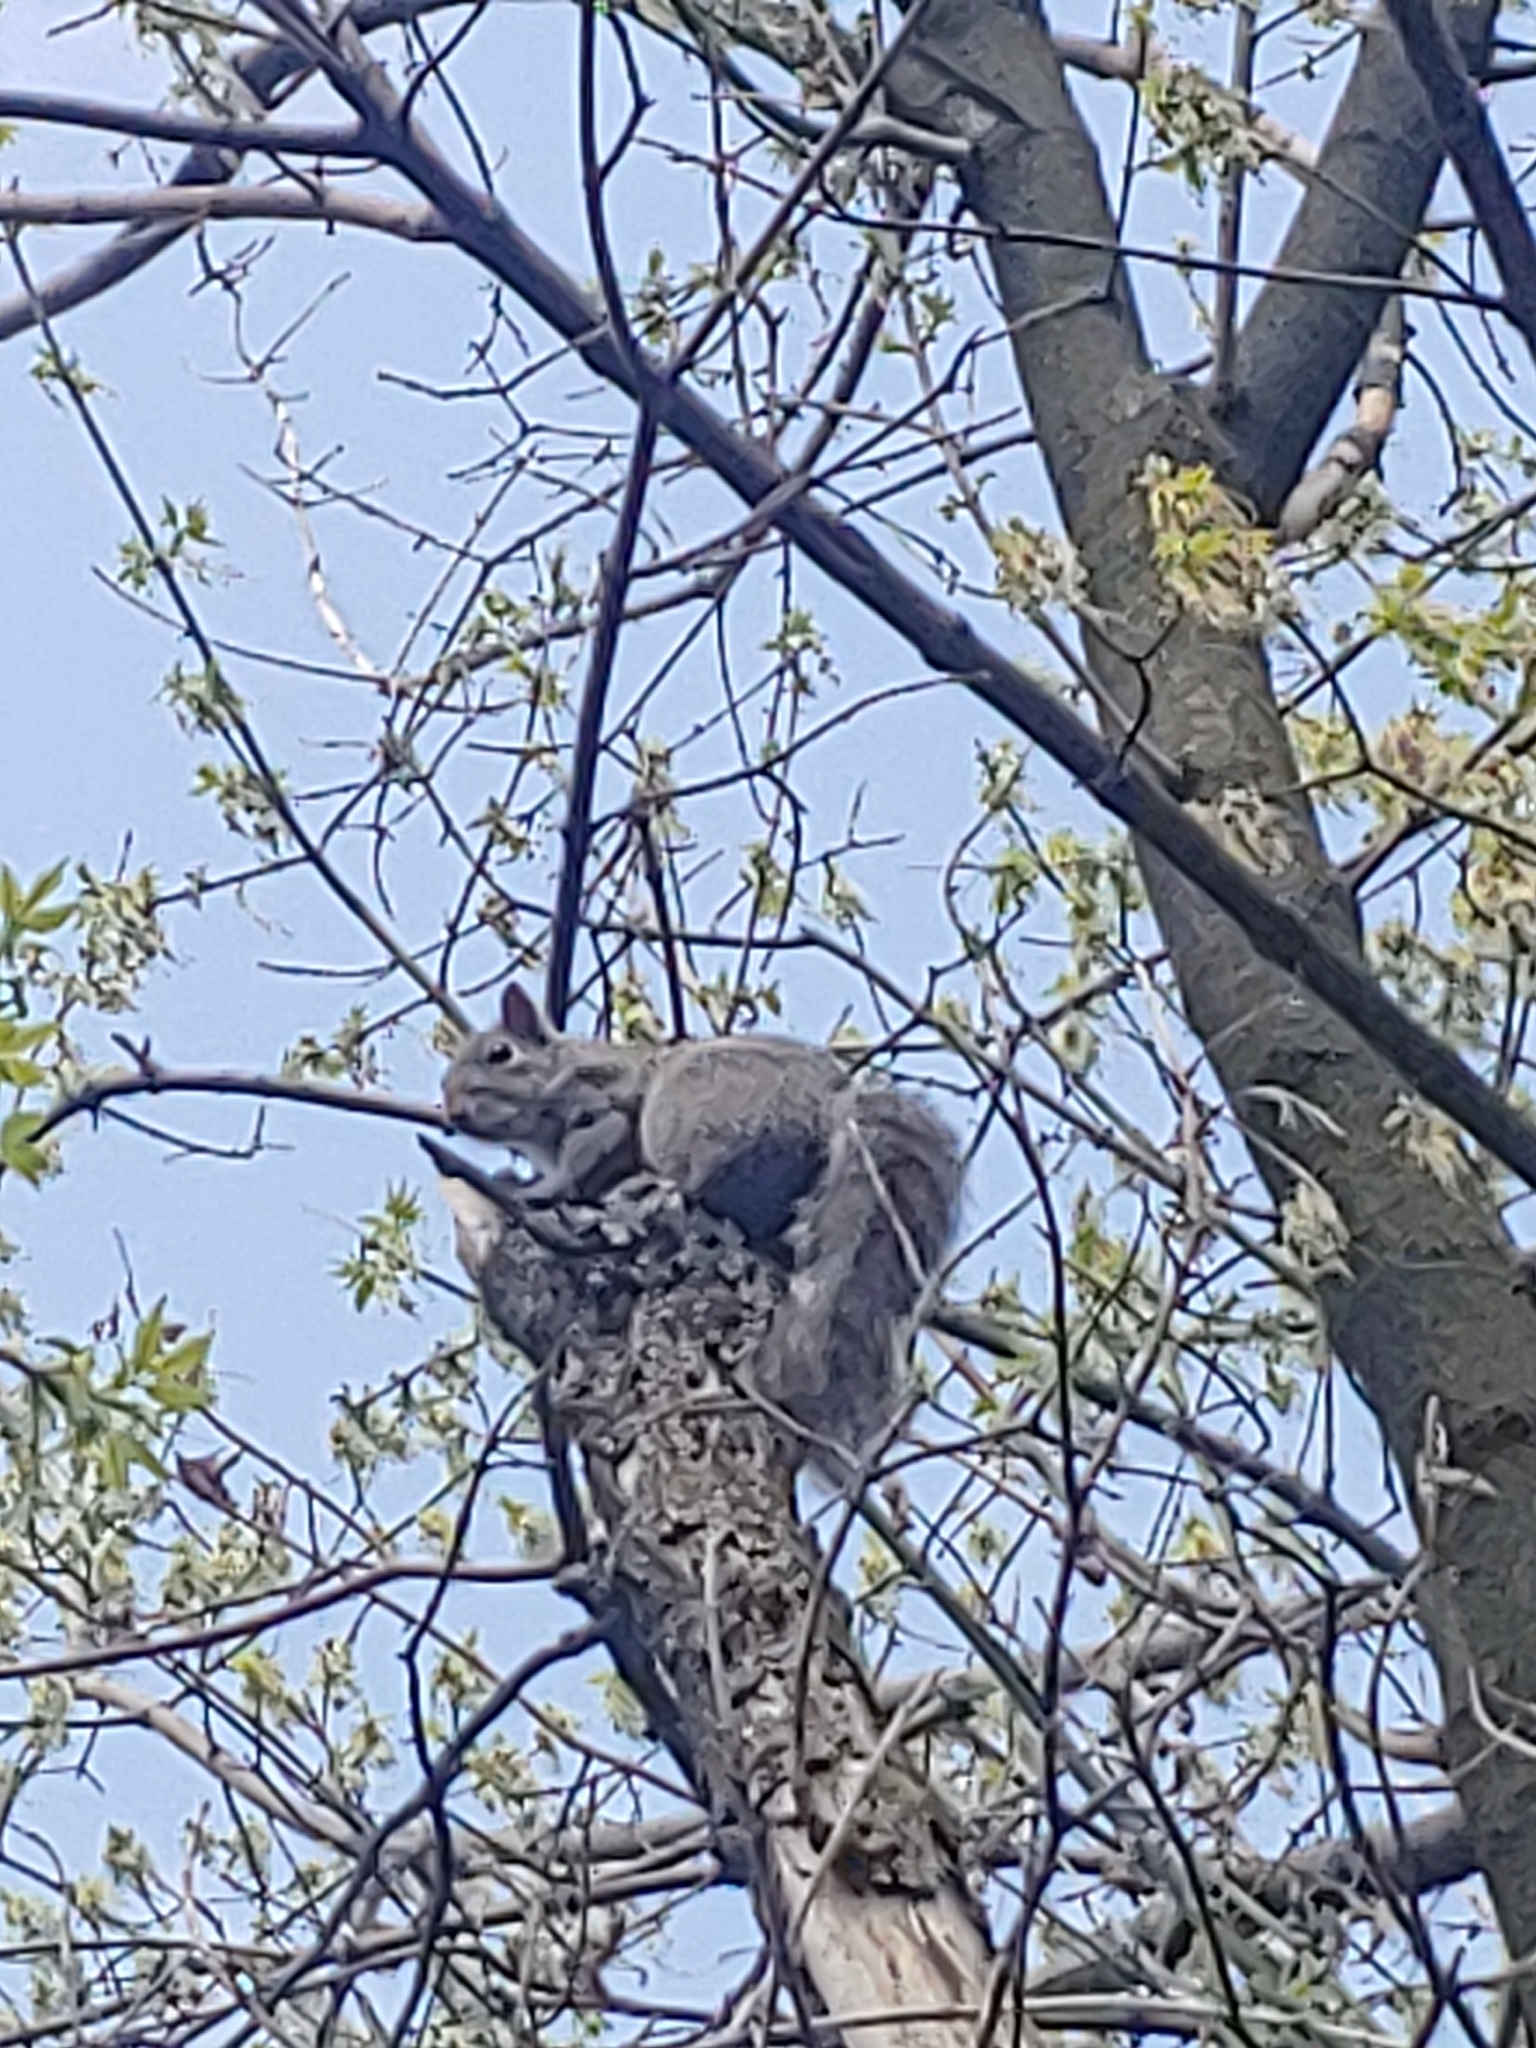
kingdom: Animalia
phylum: Chordata
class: Mammalia
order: Rodentia
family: Sciuridae
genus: Sciurus
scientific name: Sciurus carolinensis
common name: Eastern gray squirrel
